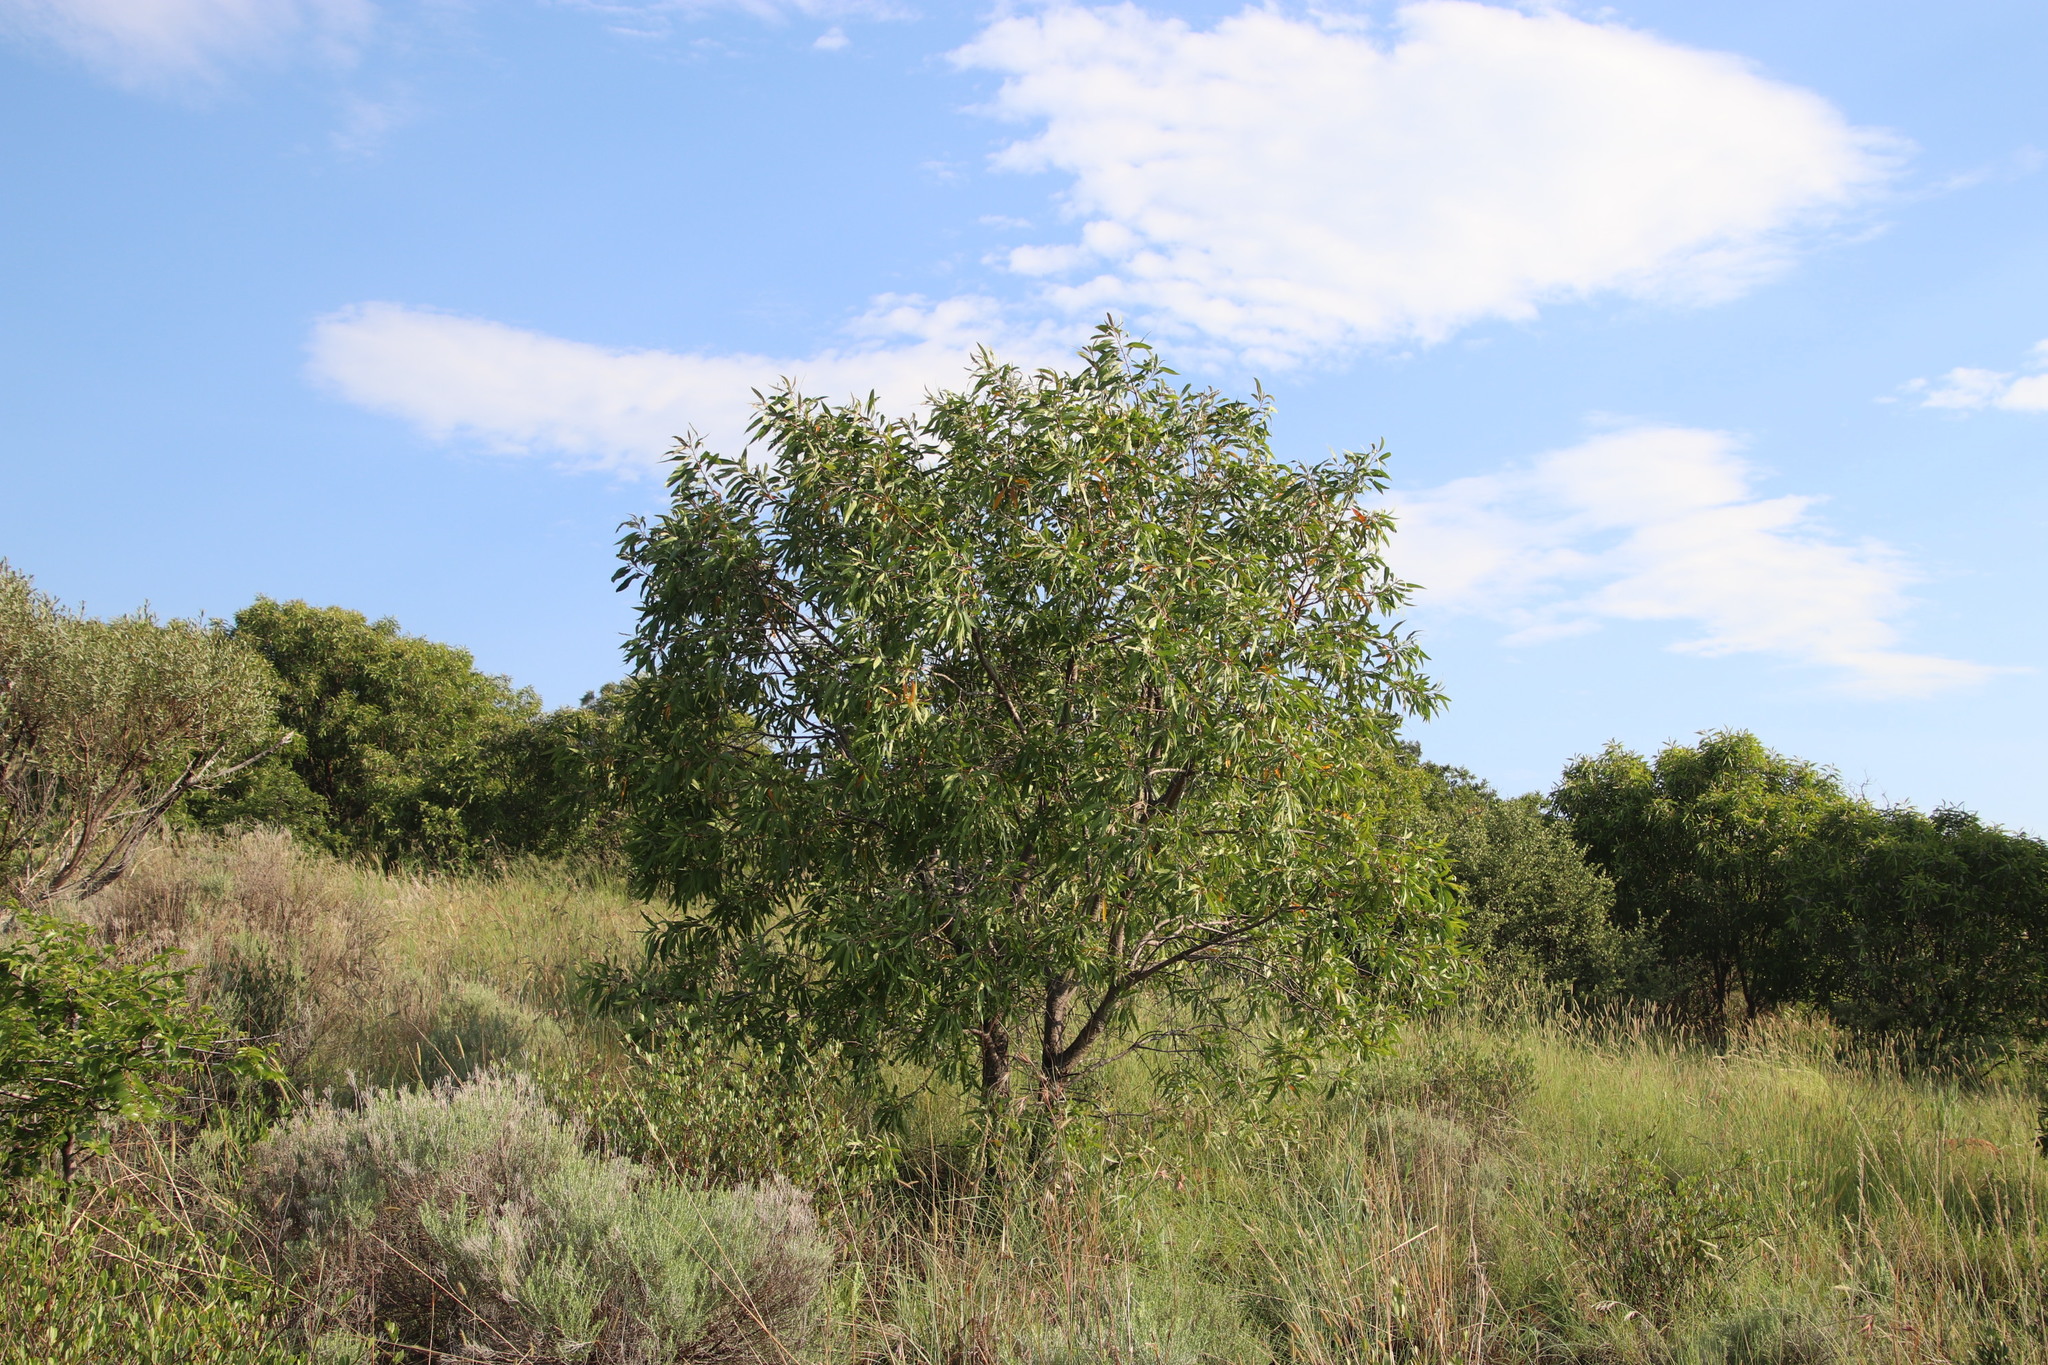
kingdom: Plantae
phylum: Tracheophyta
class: Magnoliopsida
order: Proteales
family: Proteaceae
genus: Faurea
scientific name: Faurea saligna
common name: African bean
